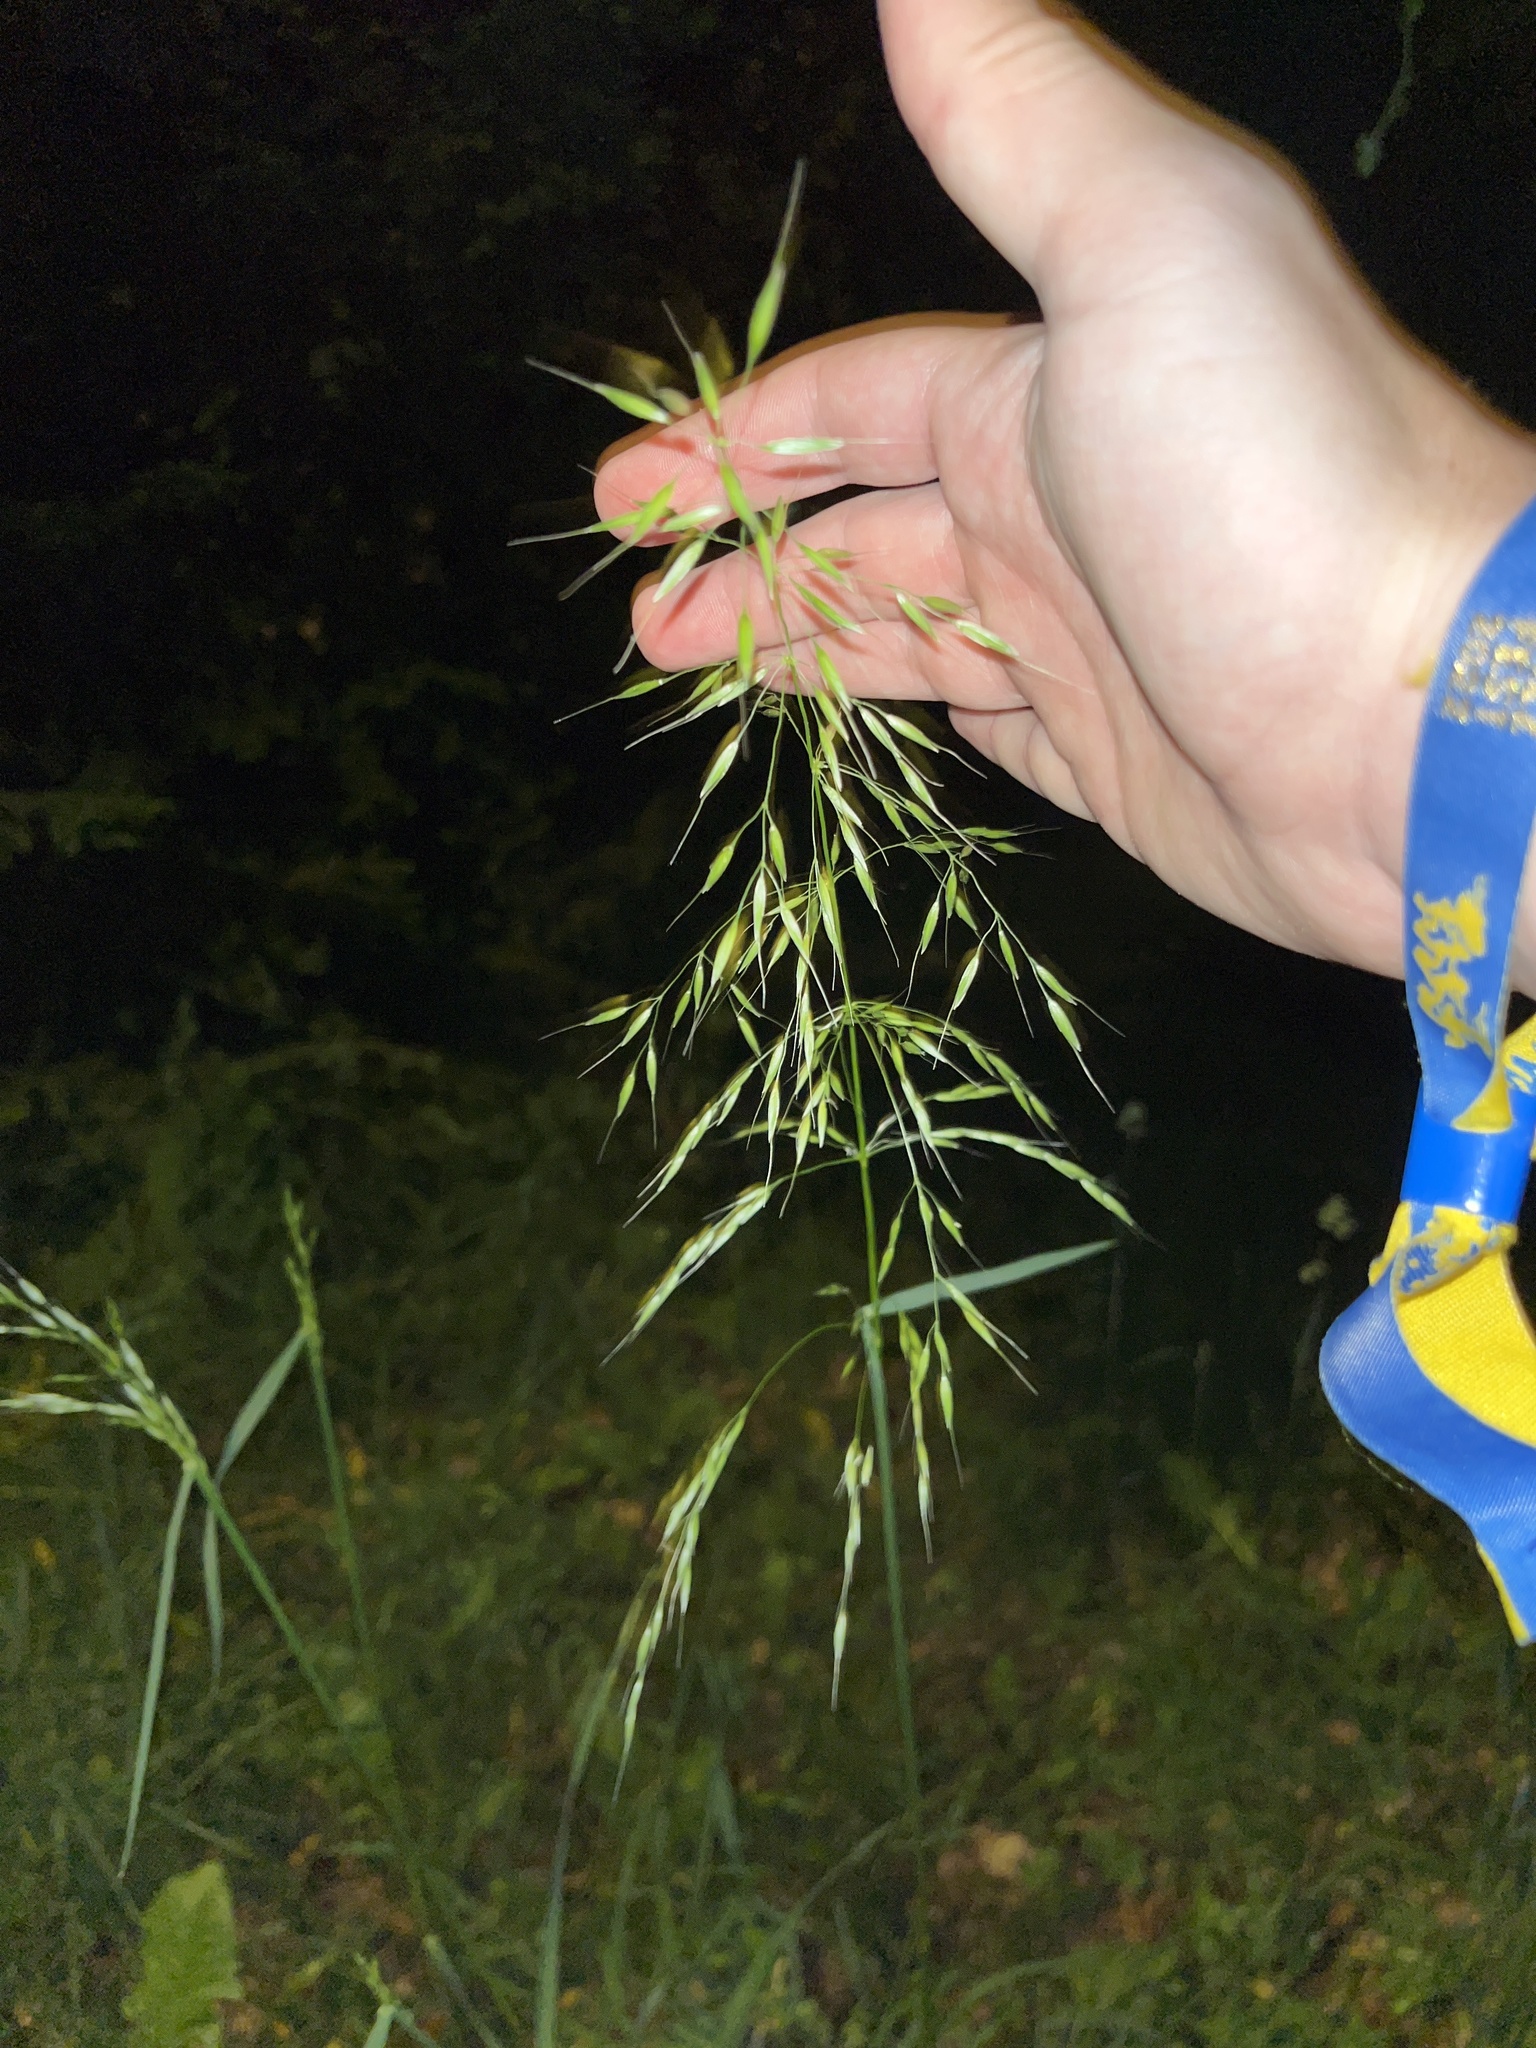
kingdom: Plantae
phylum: Tracheophyta
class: Liliopsida
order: Poales
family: Poaceae
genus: Arrhenatherum
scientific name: Arrhenatherum elatius
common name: Tall oatgrass
